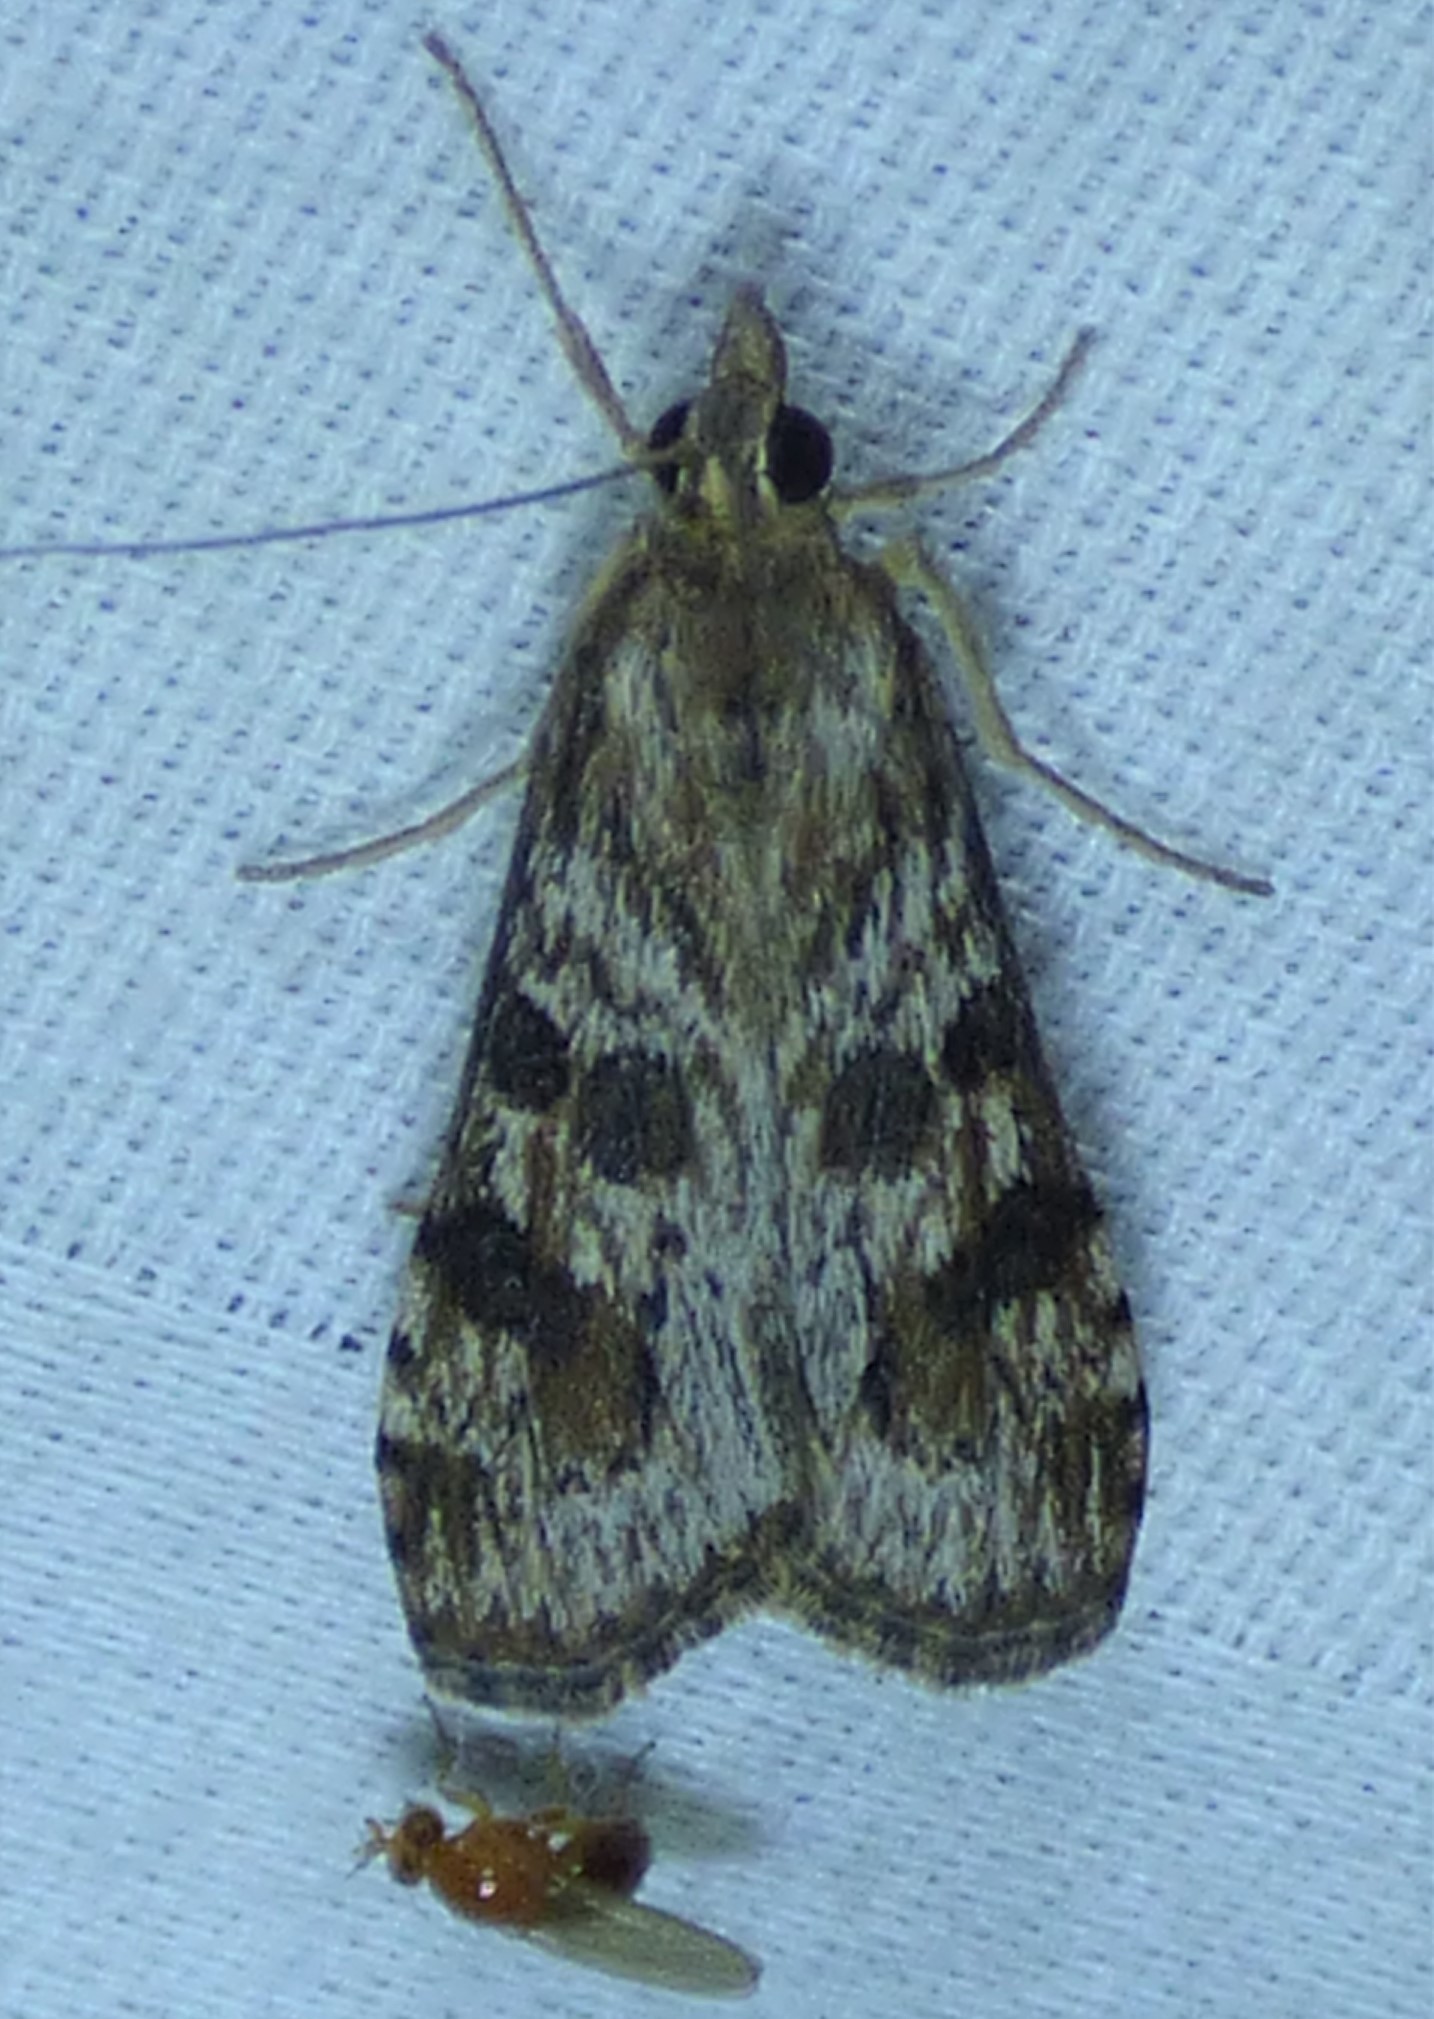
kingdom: Animalia
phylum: Arthropoda
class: Insecta
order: Lepidoptera
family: Crambidae
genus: Nomophila
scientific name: Nomophila nearctica
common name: American rush veneer
